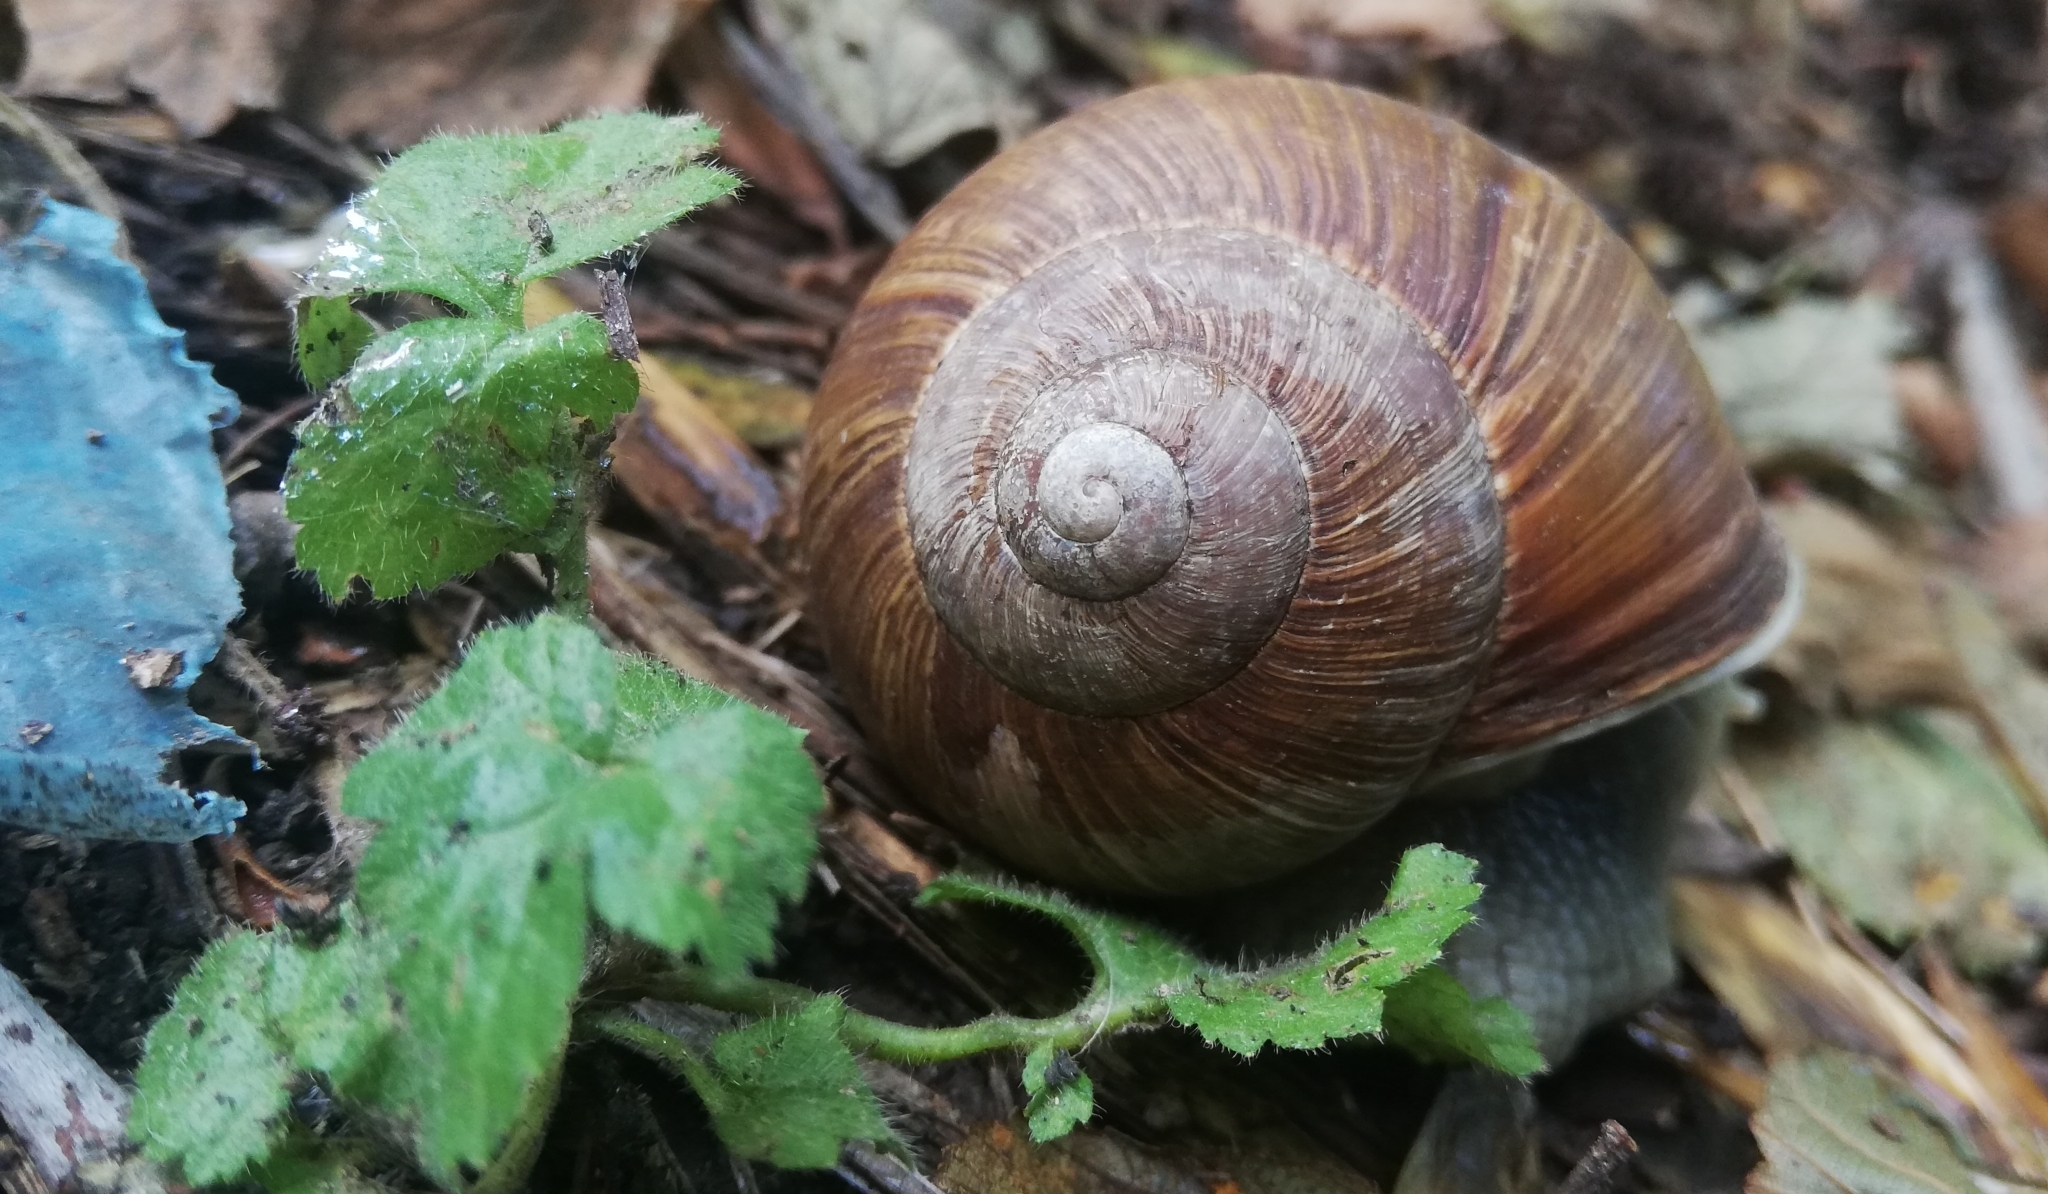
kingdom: Animalia
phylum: Mollusca
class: Gastropoda
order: Stylommatophora
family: Helicidae
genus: Helix
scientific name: Helix pomatia
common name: Roman snail
